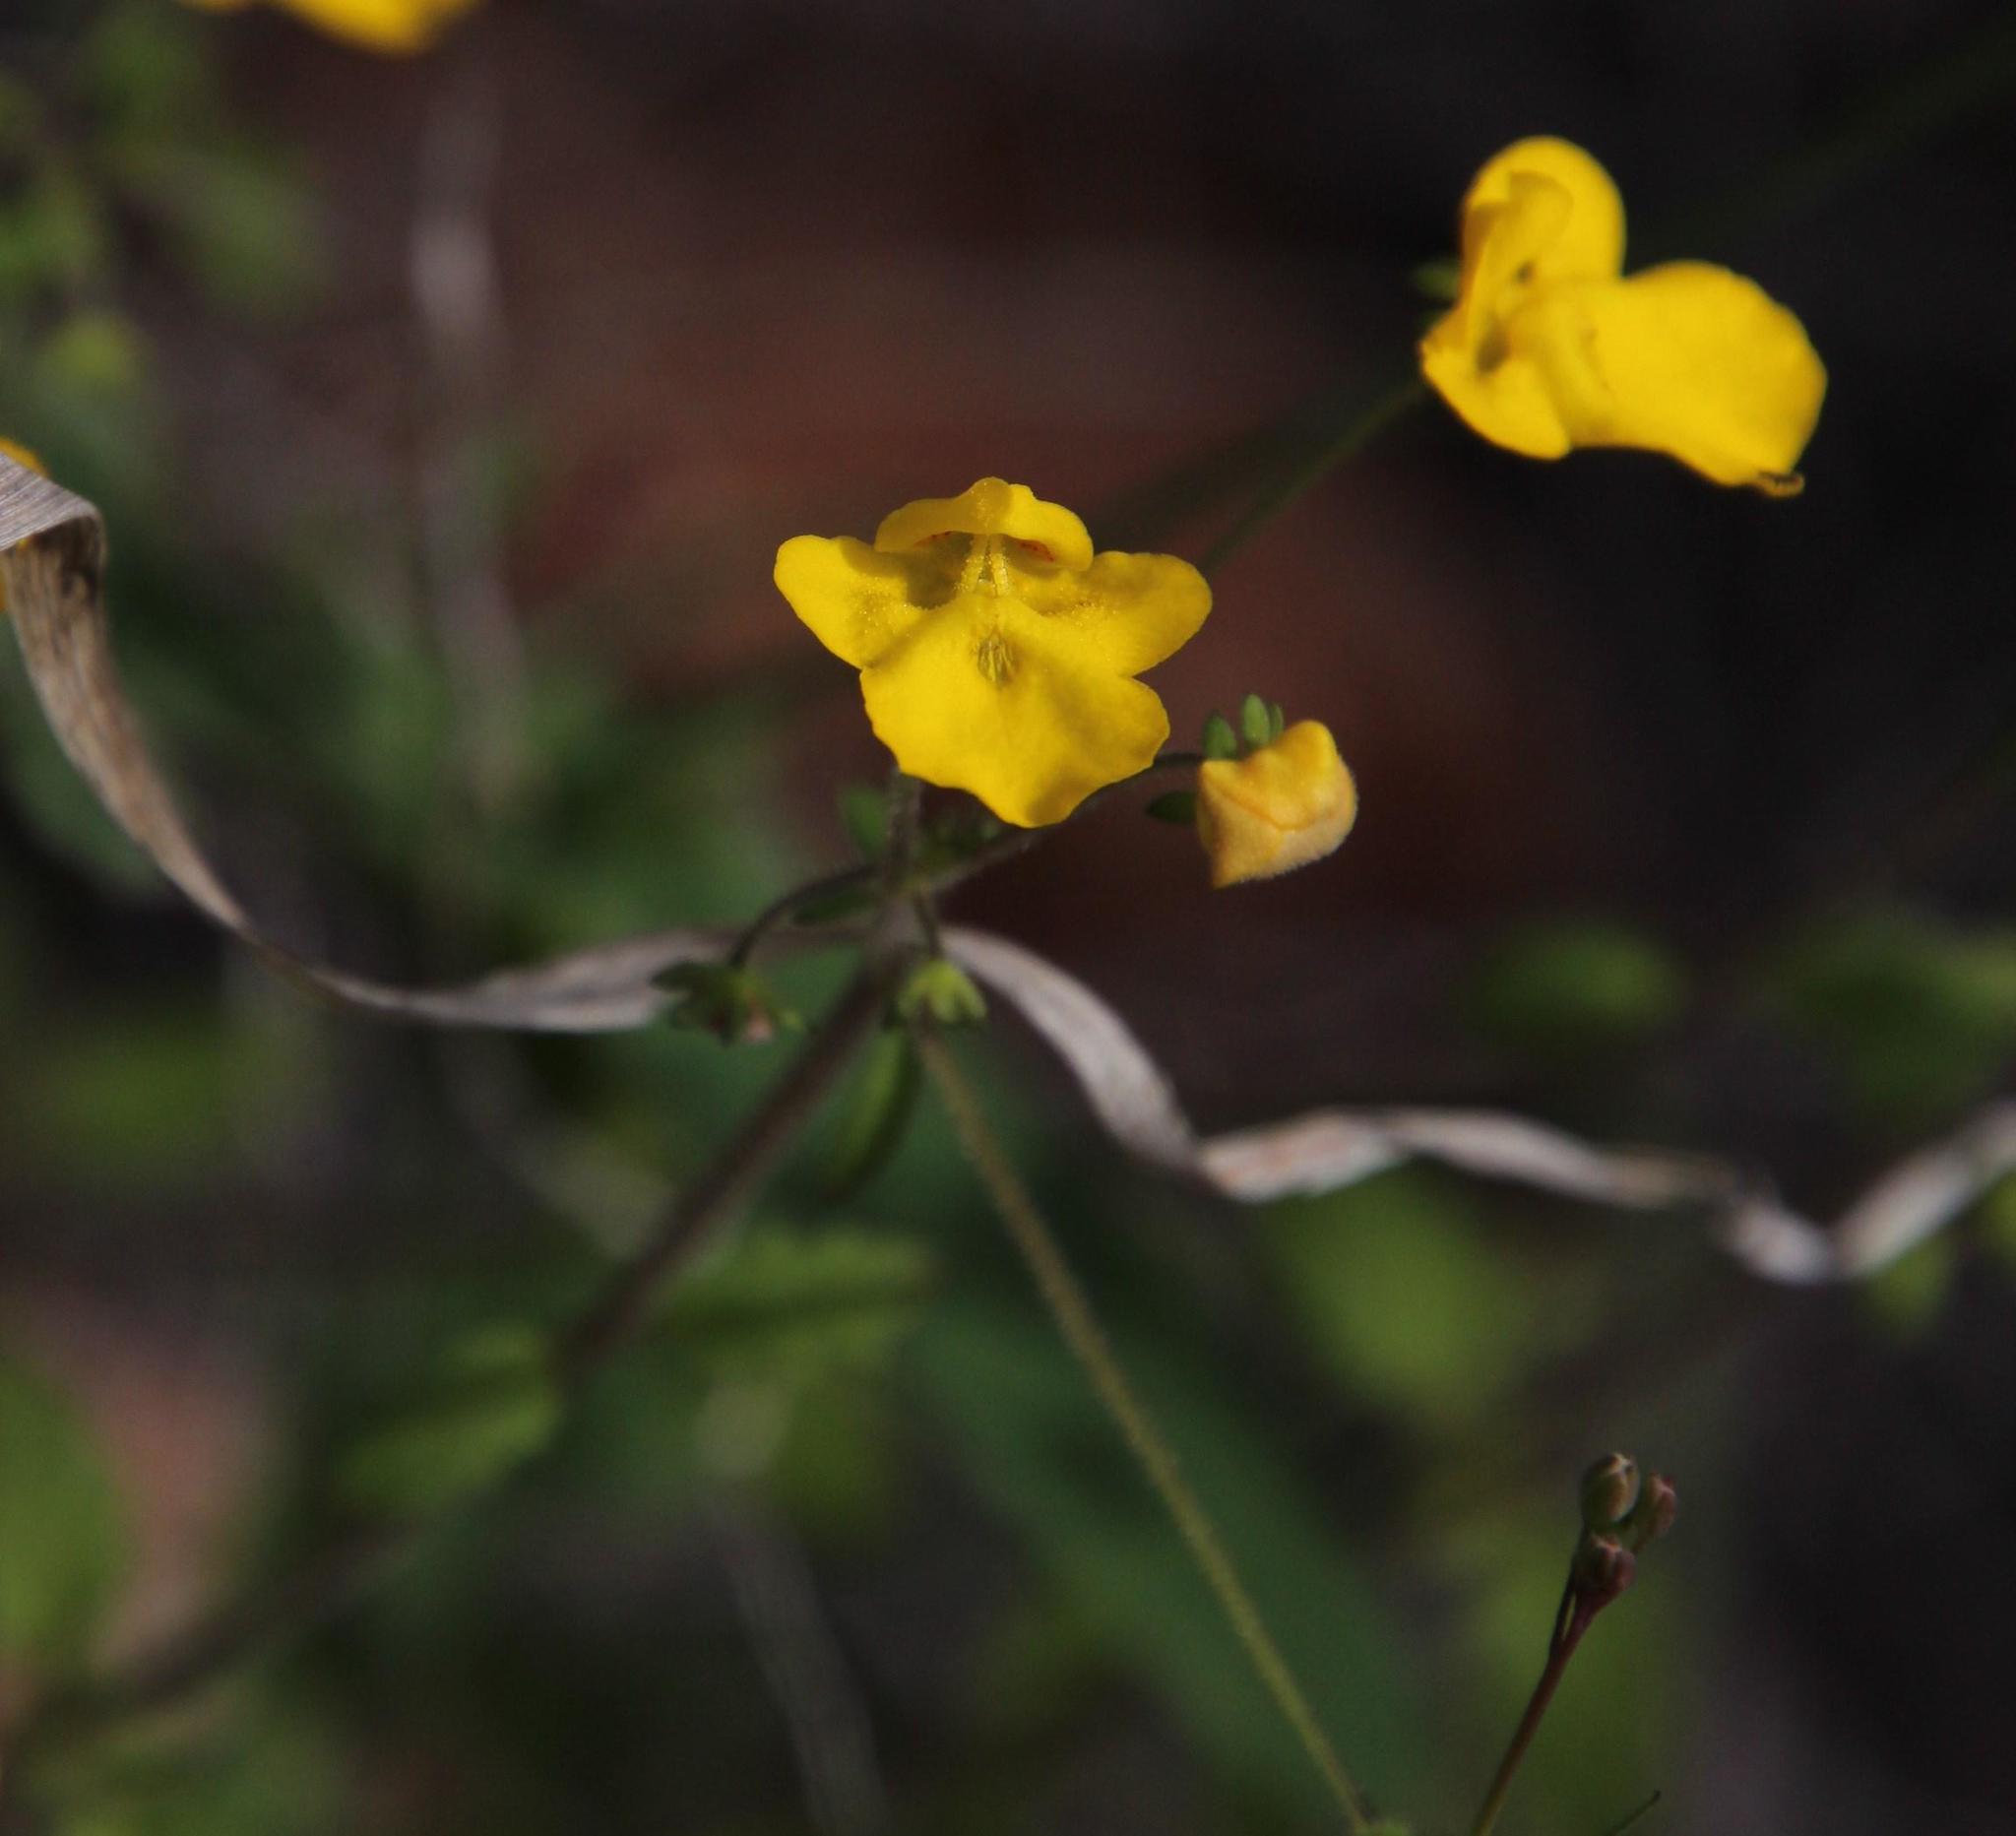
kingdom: Plantae
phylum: Tracheophyta
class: Magnoliopsida
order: Lamiales
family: Scrophulariaceae
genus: Hemimeris
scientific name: Hemimeris racemosa
